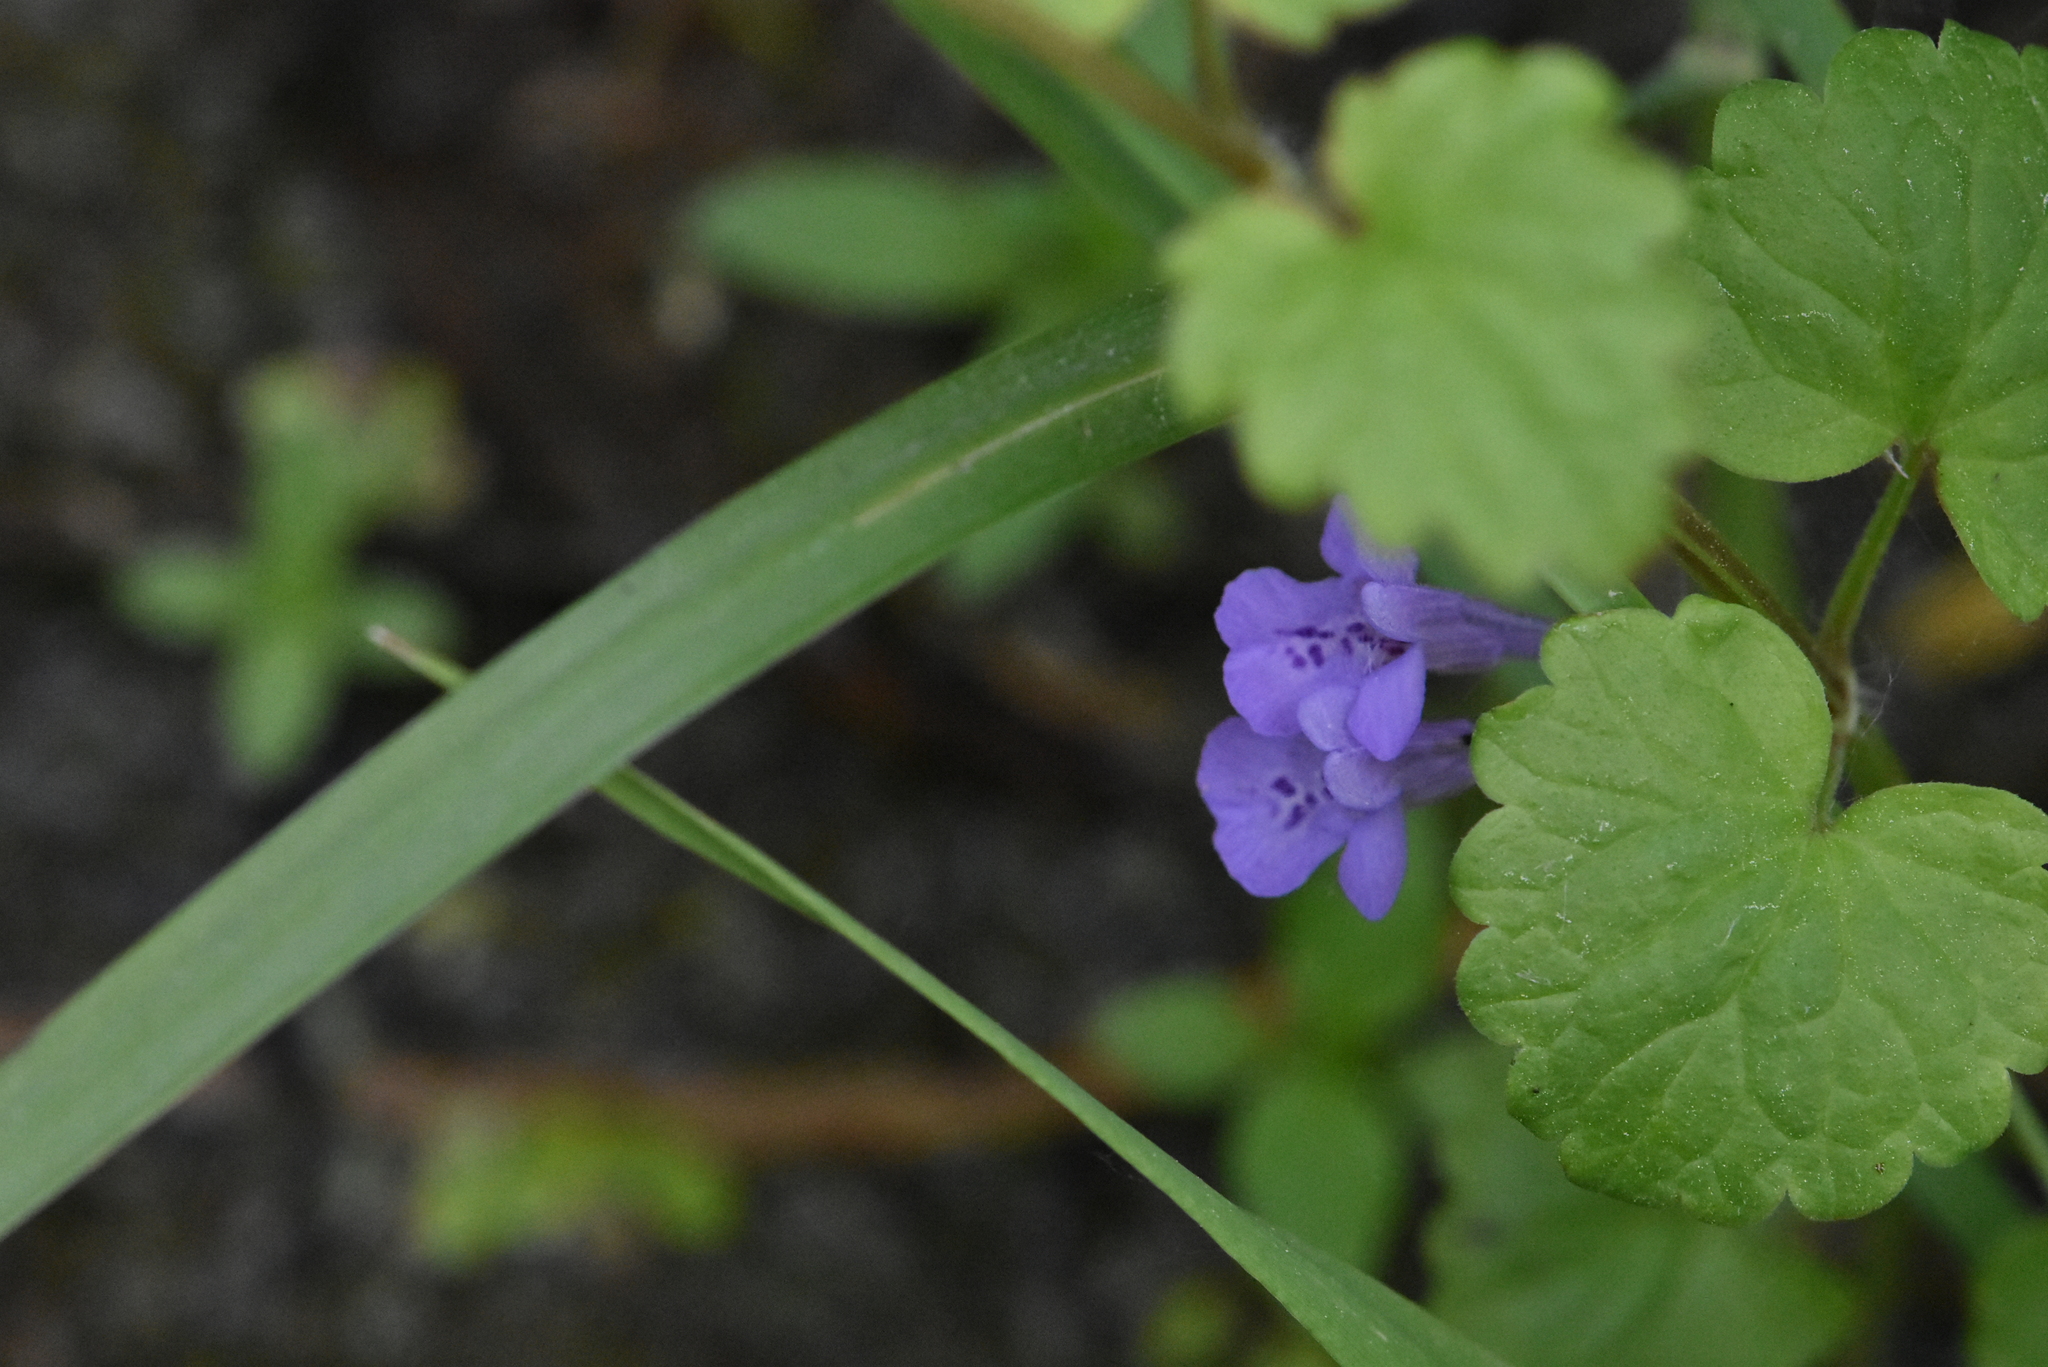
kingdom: Plantae
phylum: Tracheophyta
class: Magnoliopsida
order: Lamiales
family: Lamiaceae
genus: Glechoma
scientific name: Glechoma hederacea
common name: Ground ivy
